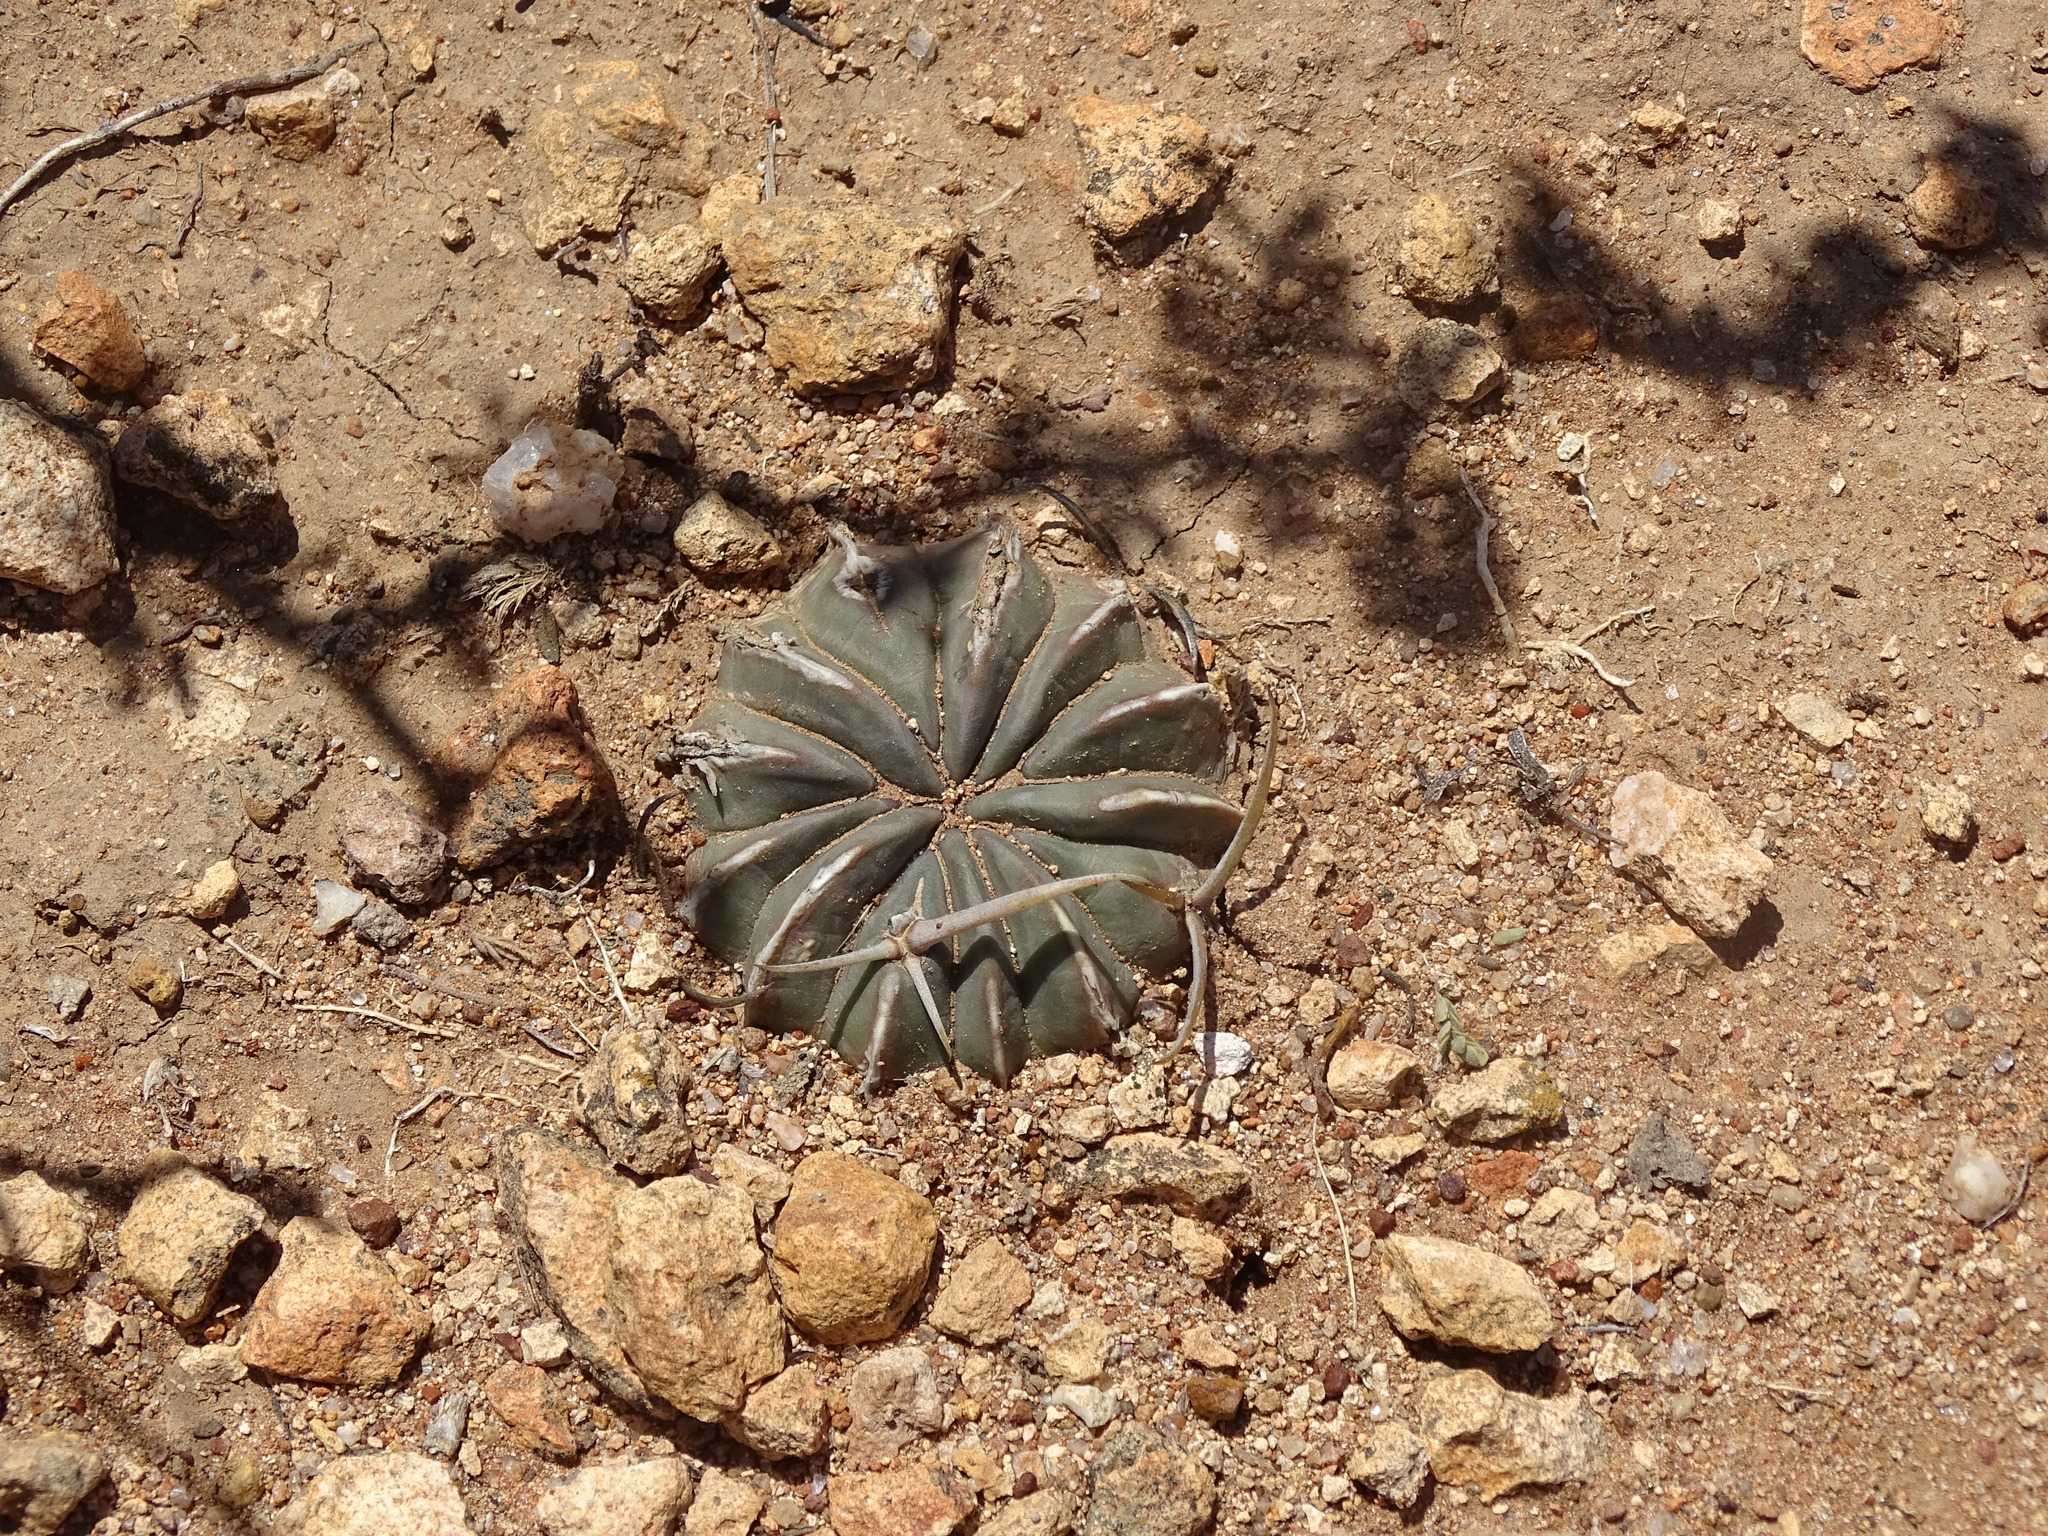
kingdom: Plantae
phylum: Tracheophyta
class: Magnoliopsida
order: Caryophyllales
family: Cactaceae
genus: Stenocactus
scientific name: Stenocactus coptonogonus
